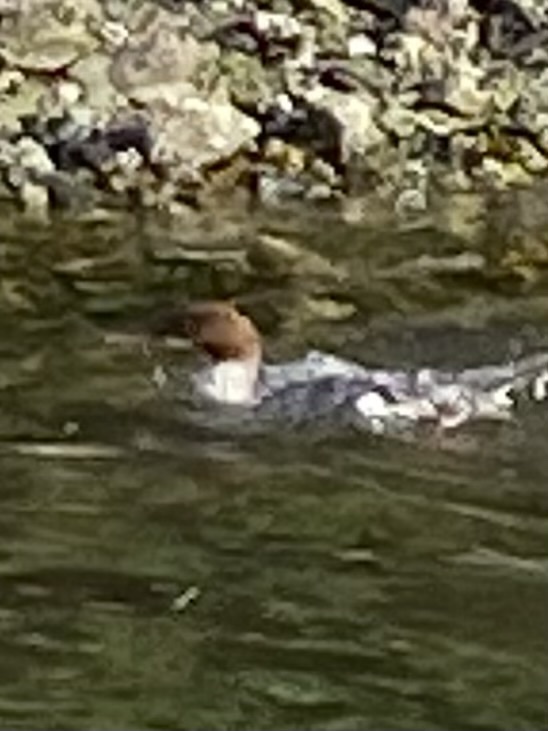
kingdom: Animalia
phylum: Chordata
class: Aves
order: Anseriformes
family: Anatidae
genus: Mergus
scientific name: Mergus merganser
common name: Common merganser
